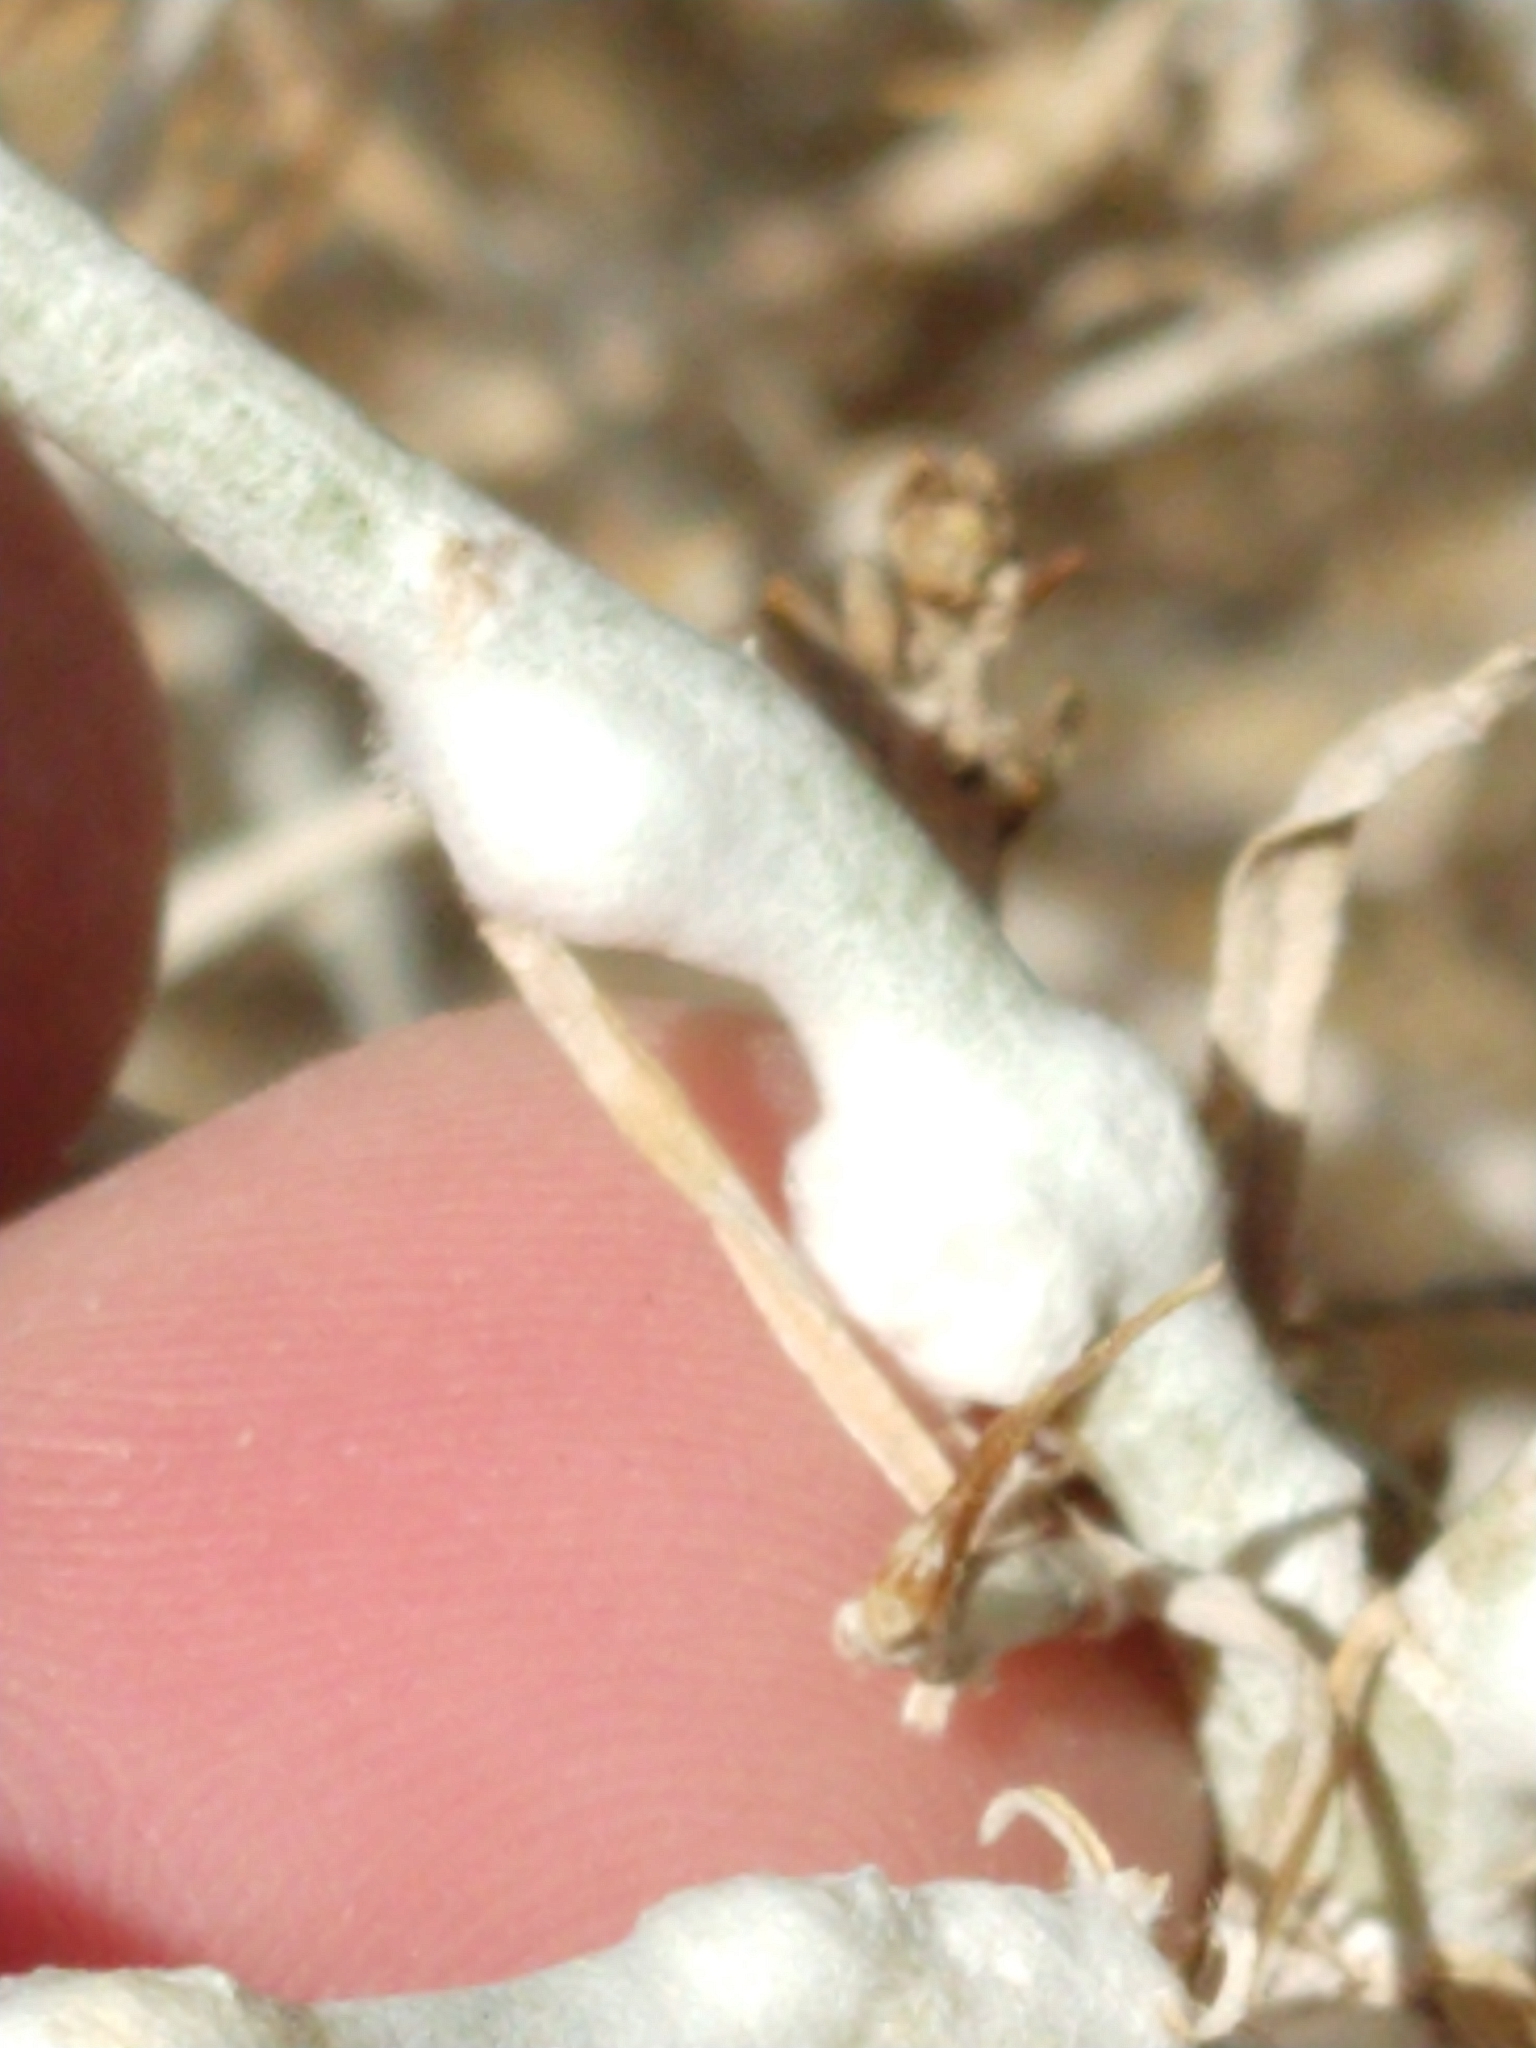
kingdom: Animalia
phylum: Arthropoda
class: Insecta
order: Diptera
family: Cecidomyiidae
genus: Rhopalomyia
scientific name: Rhopalomyia chrysothamni
